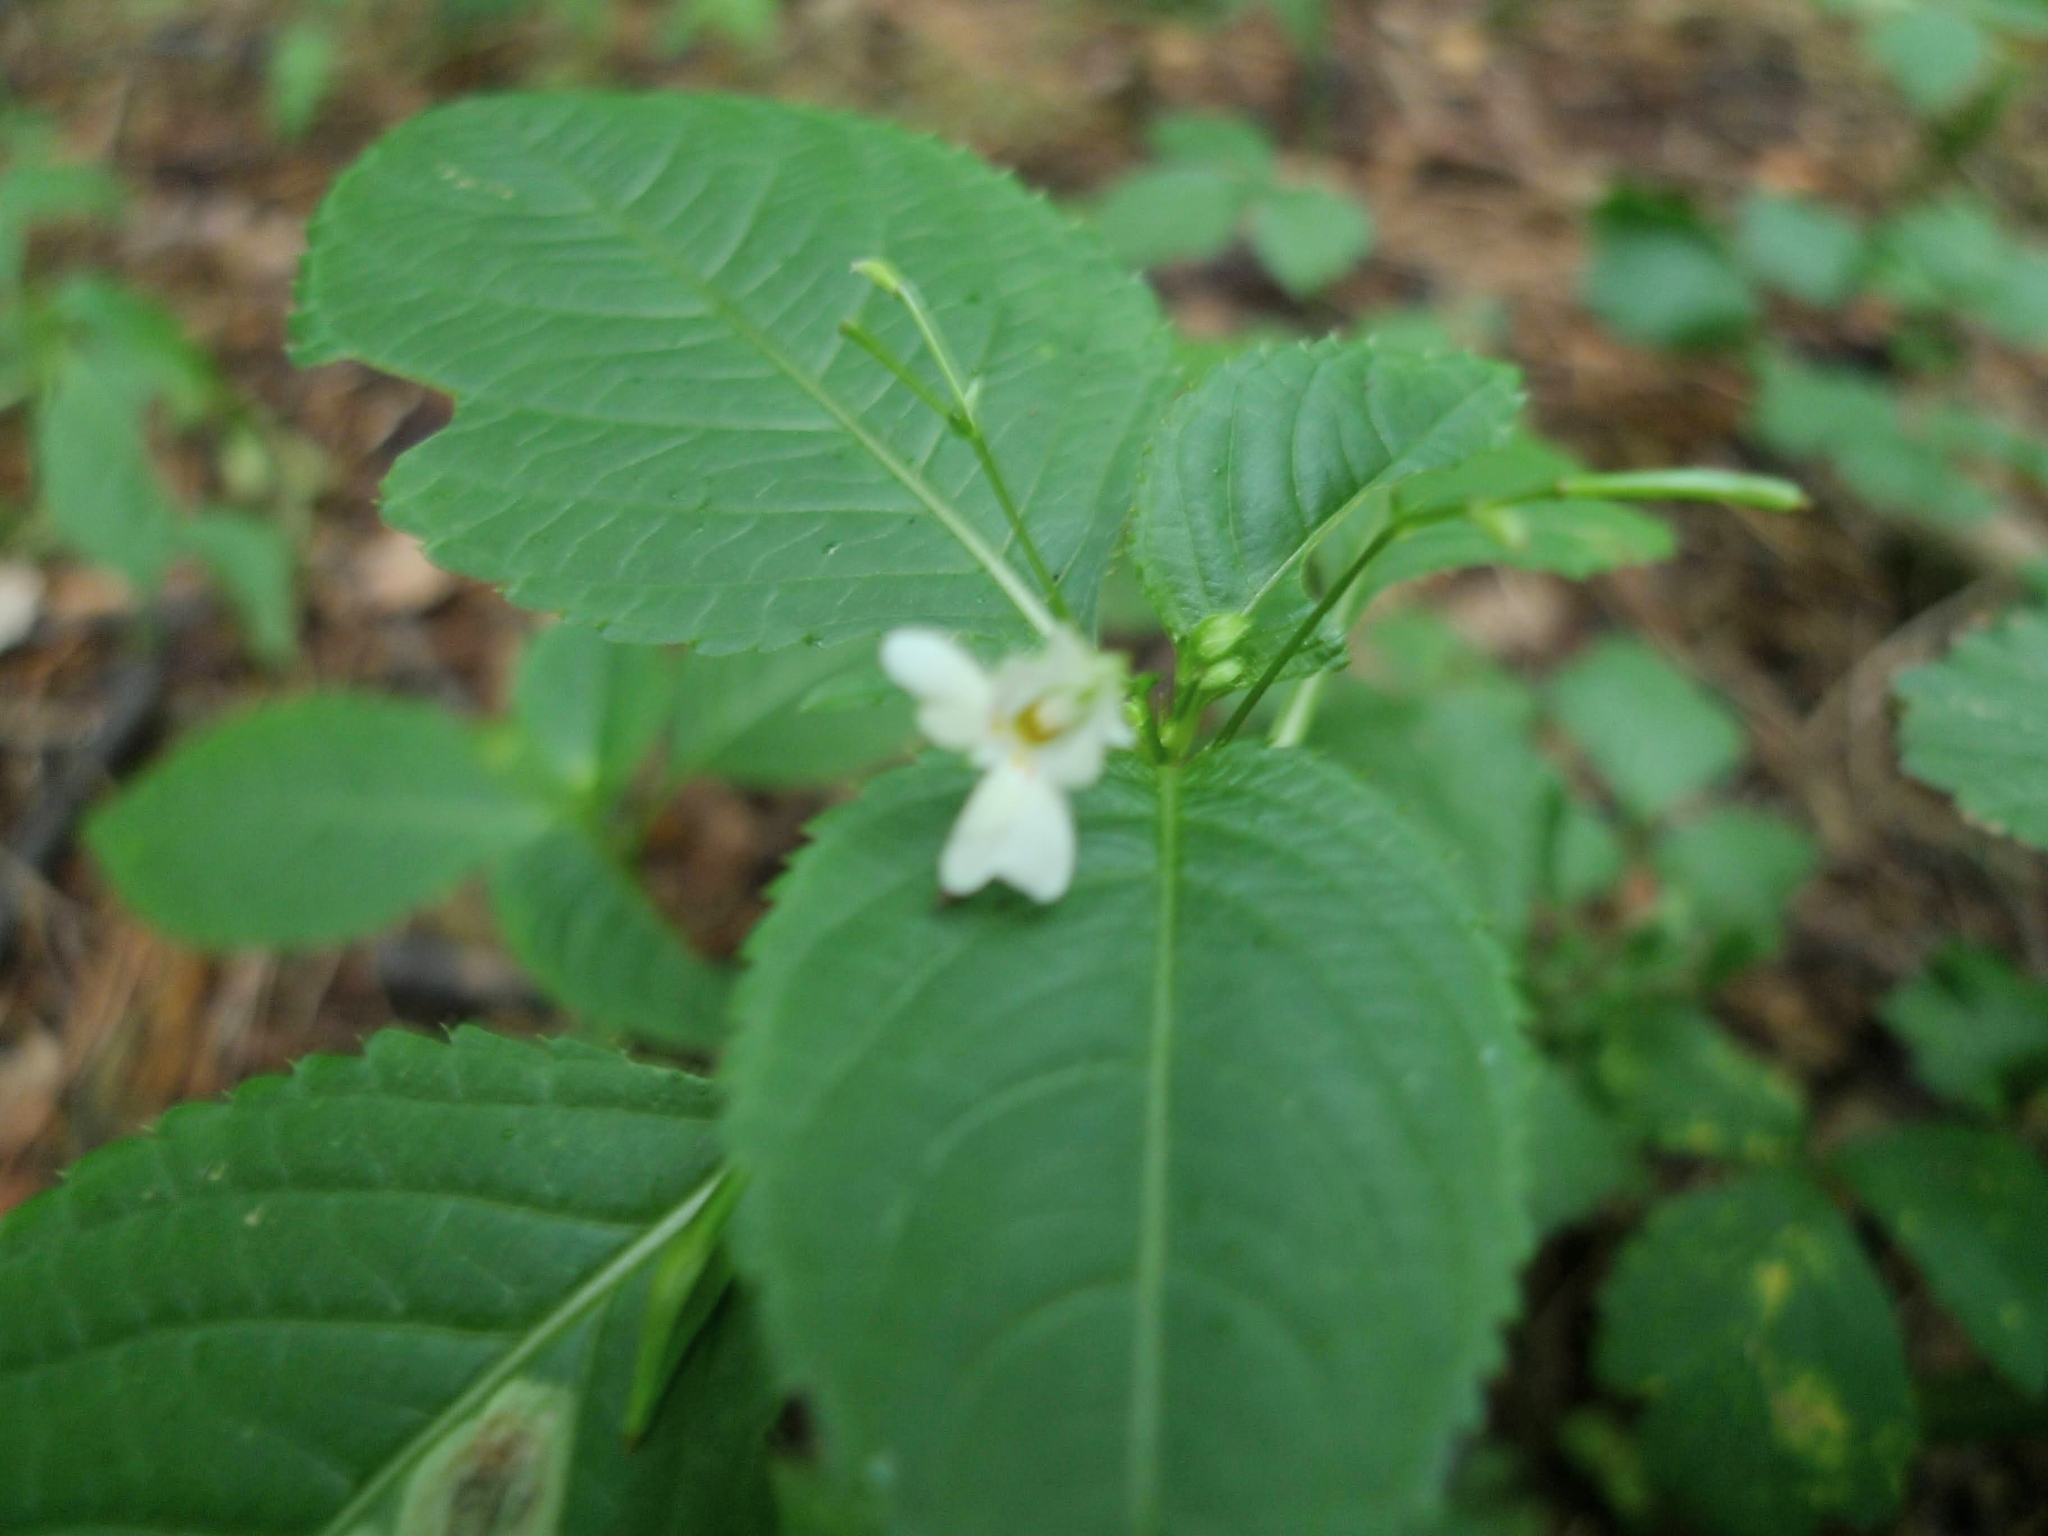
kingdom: Plantae
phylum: Tracheophyta
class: Magnoliopsida
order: Ericales
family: Balsaminaceae
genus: Impatiens
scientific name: Impatiens parviflora
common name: Small balsam
